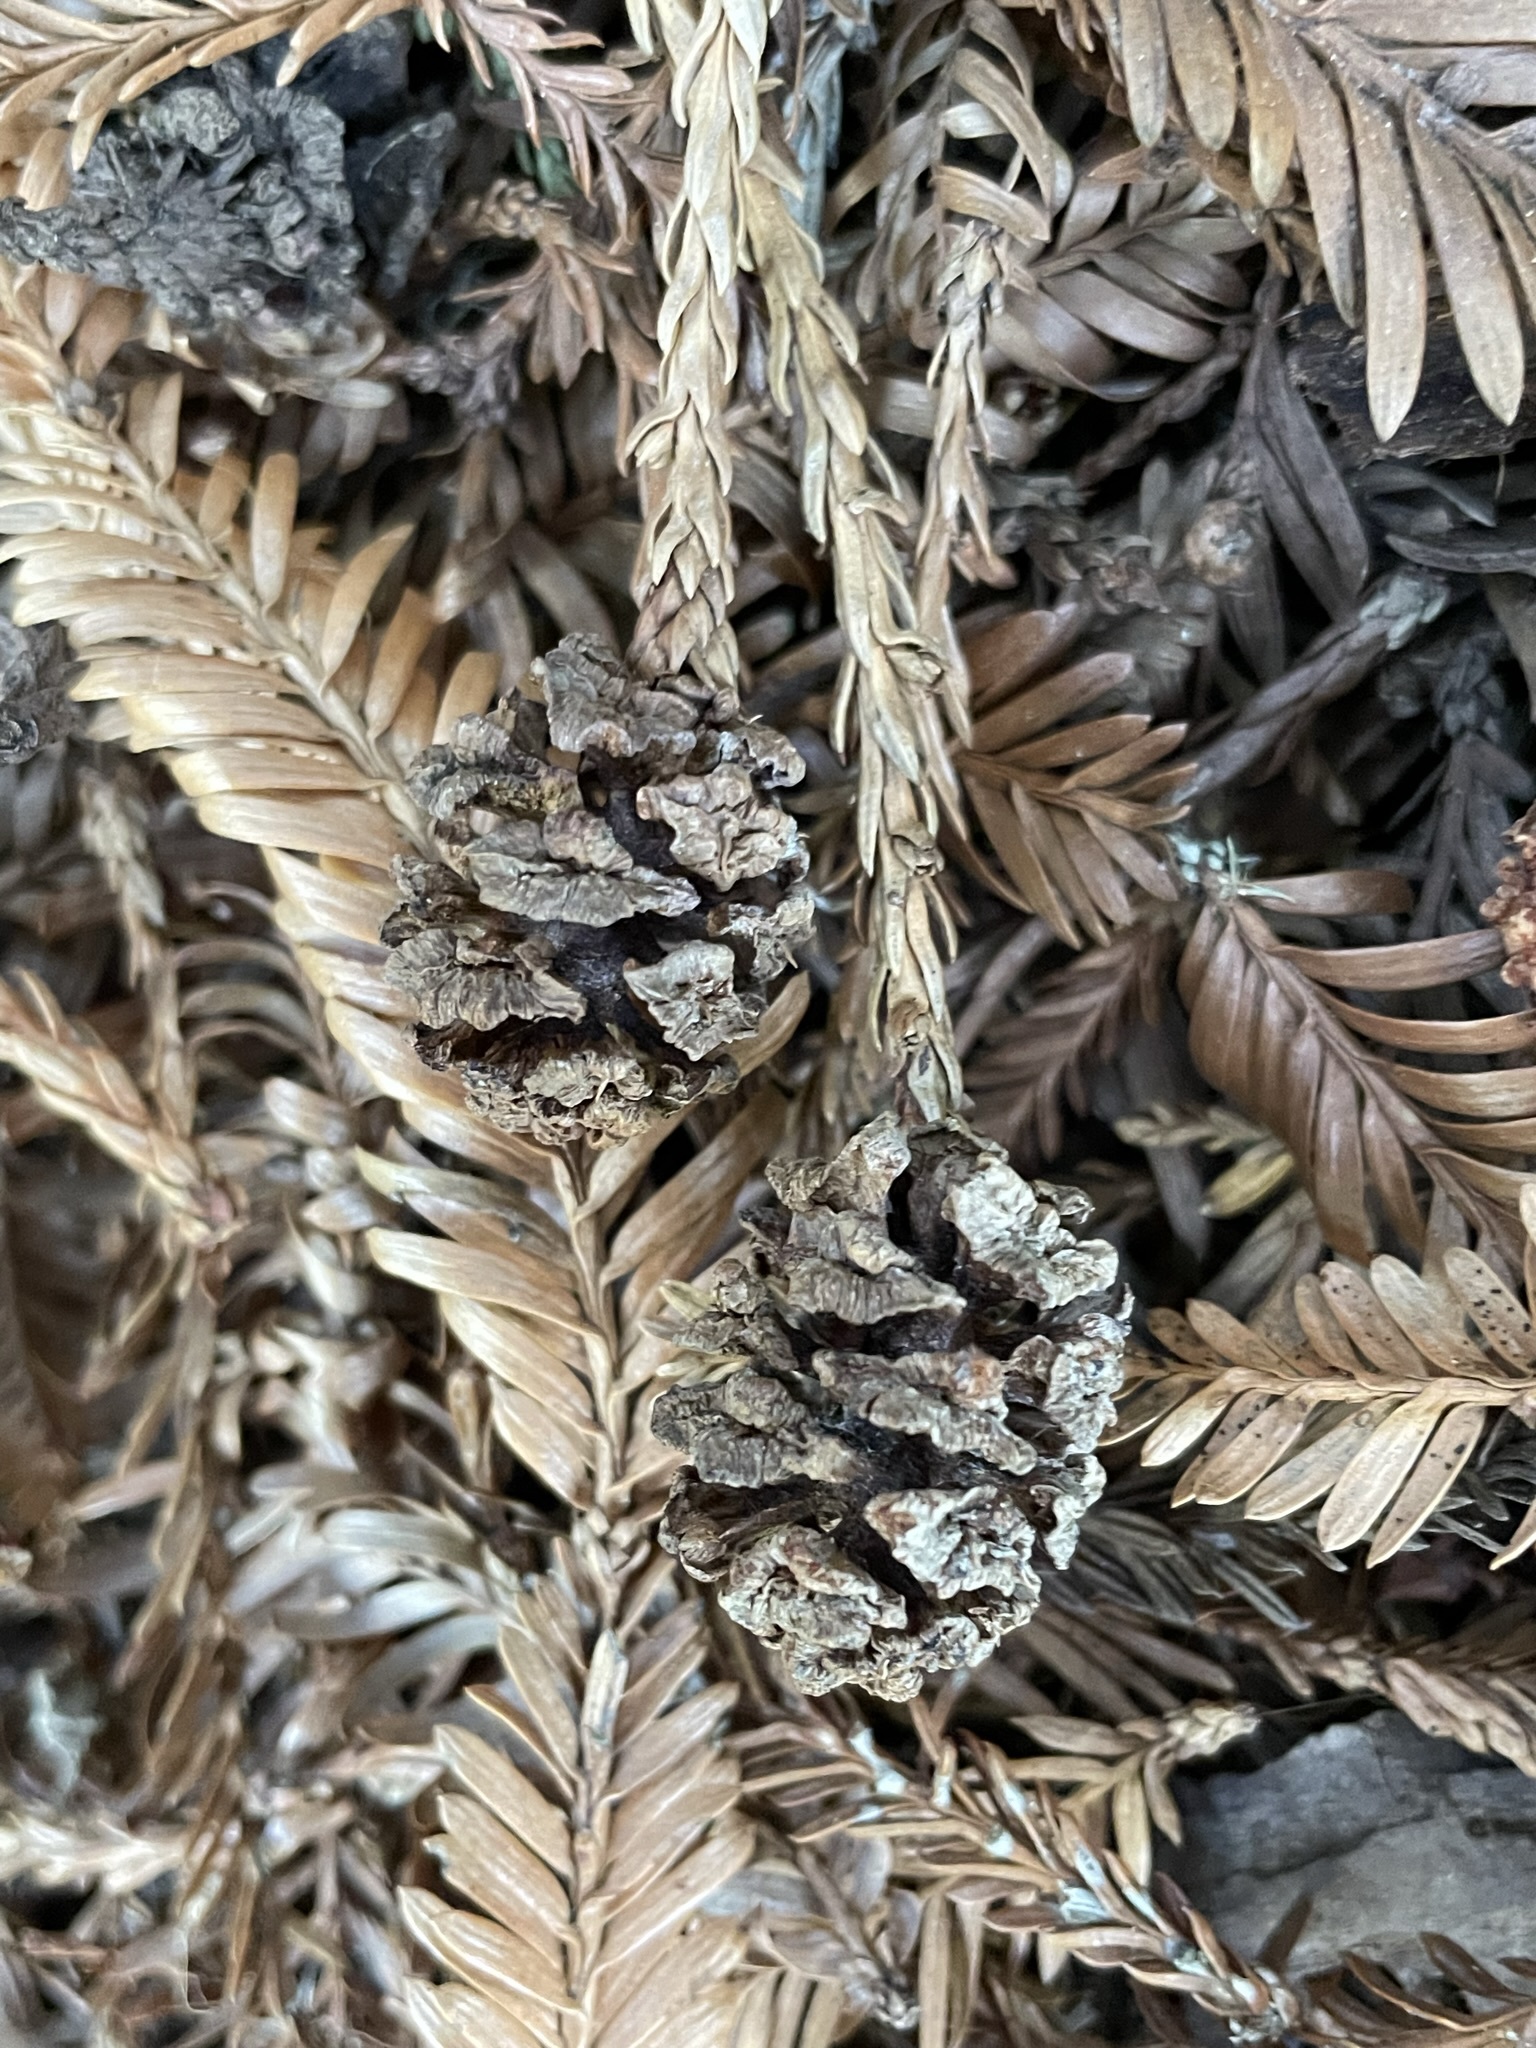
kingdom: Plantae
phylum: Tracheophyta
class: Pinopsida
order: Pinales
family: Cupressaceae
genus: Sequoia
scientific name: Sequoia sempervirens
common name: Coast redwood
